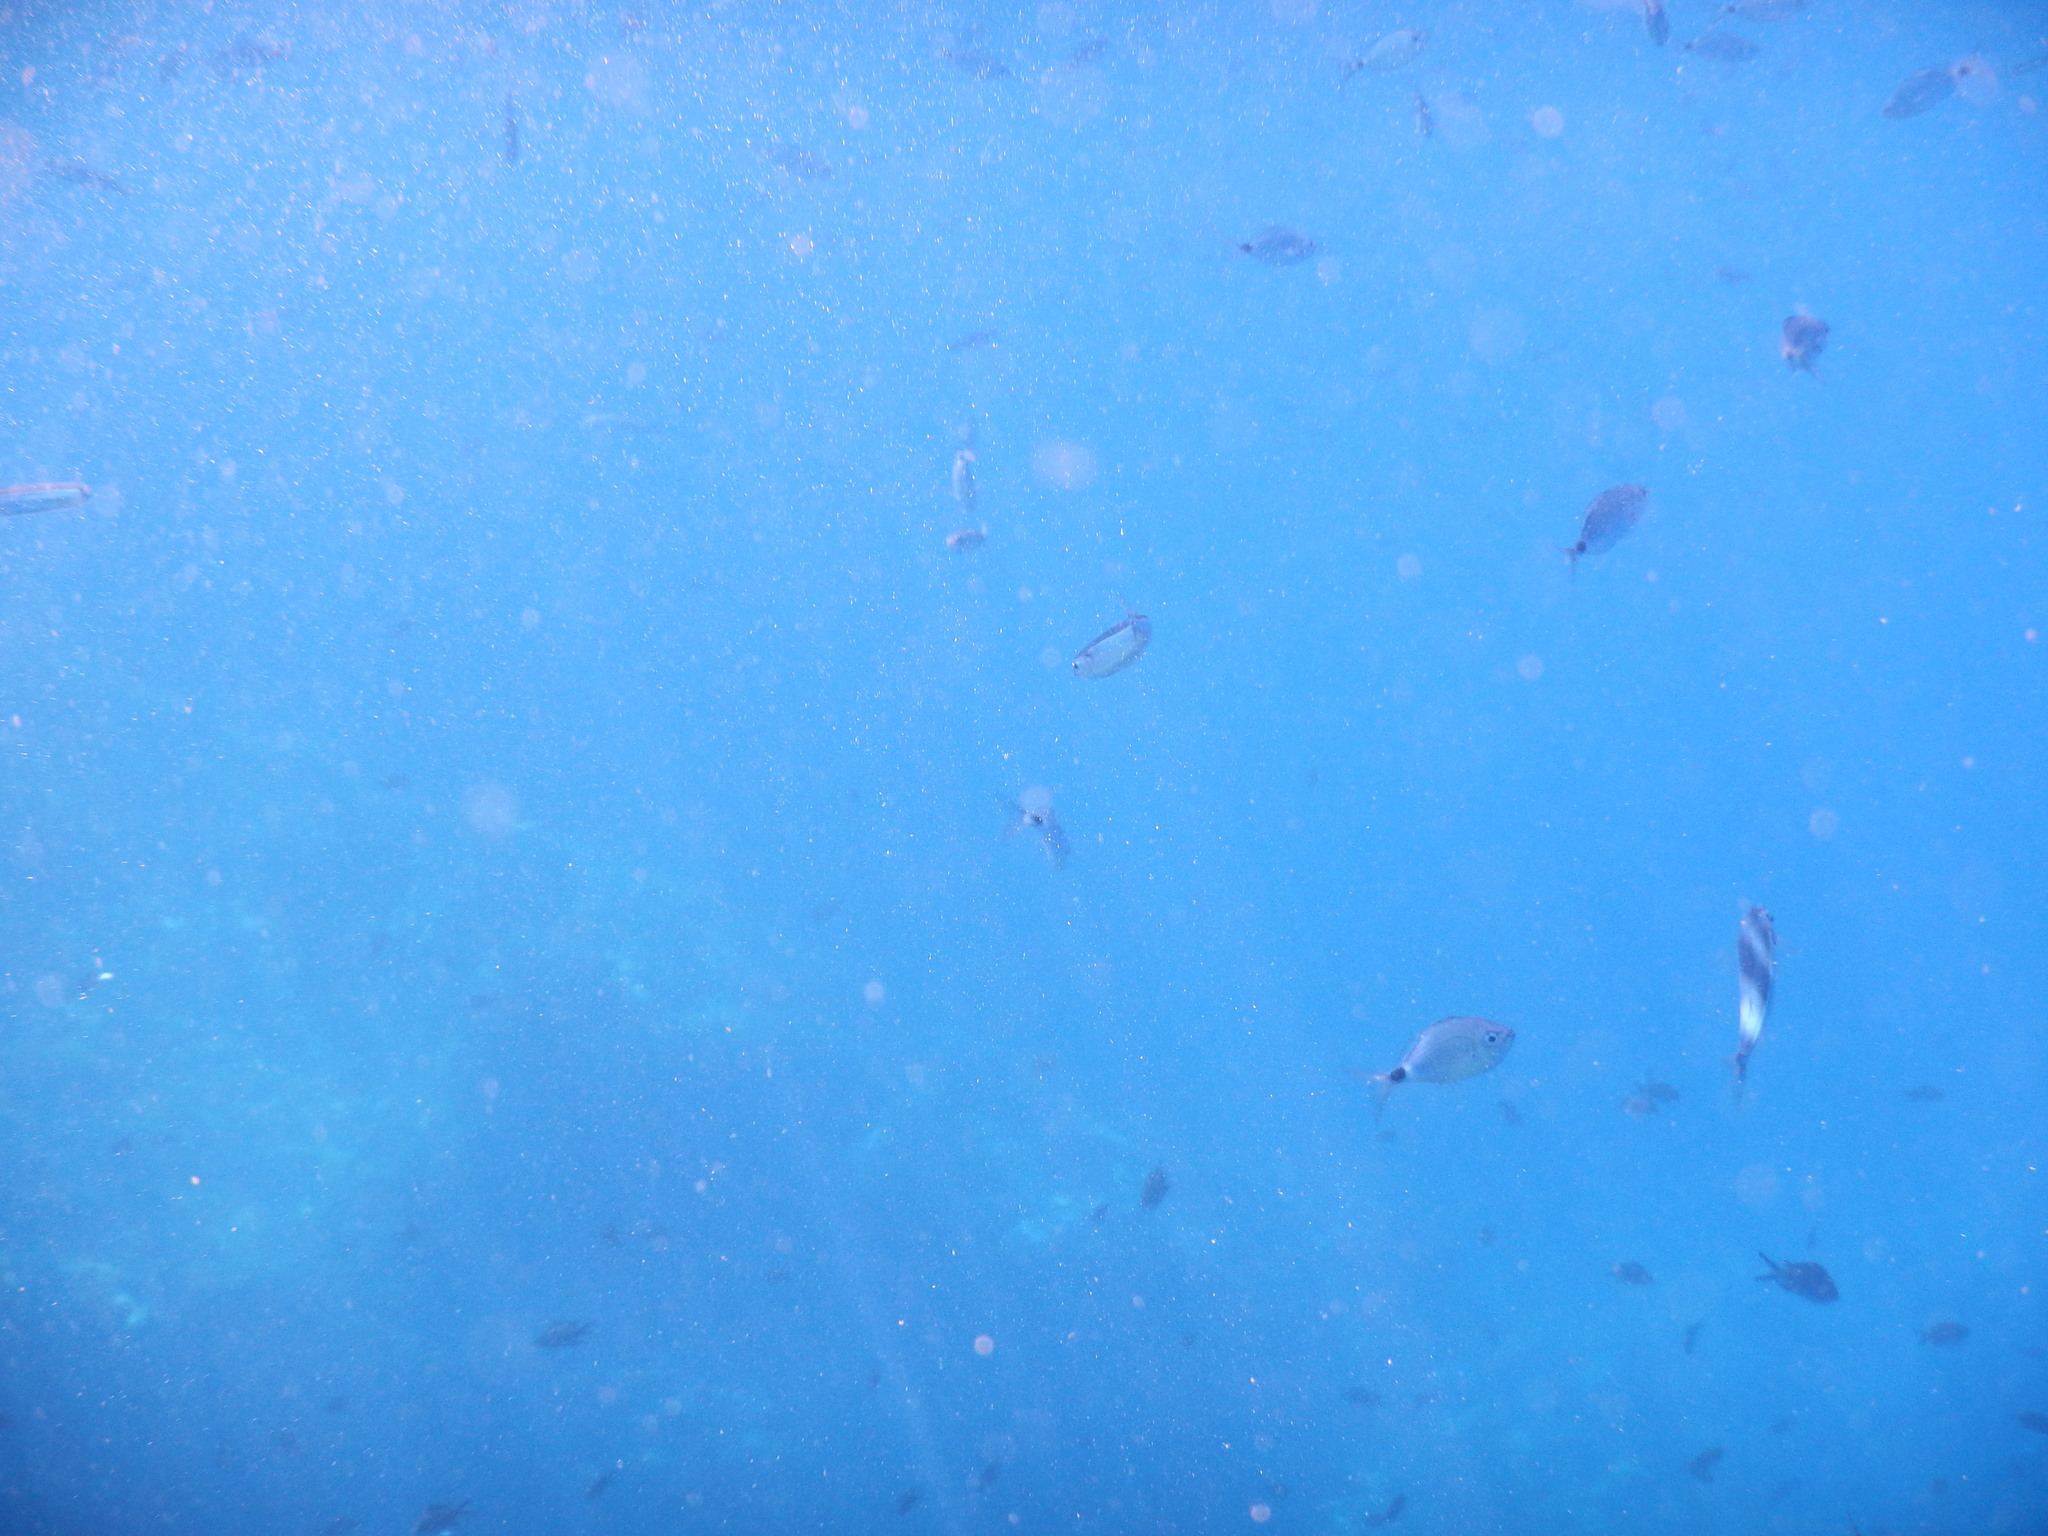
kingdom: Animalia
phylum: Chordata
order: Perciformes
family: Sparidae
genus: Oblada
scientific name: Oblada melanura
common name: Saddled seabream
